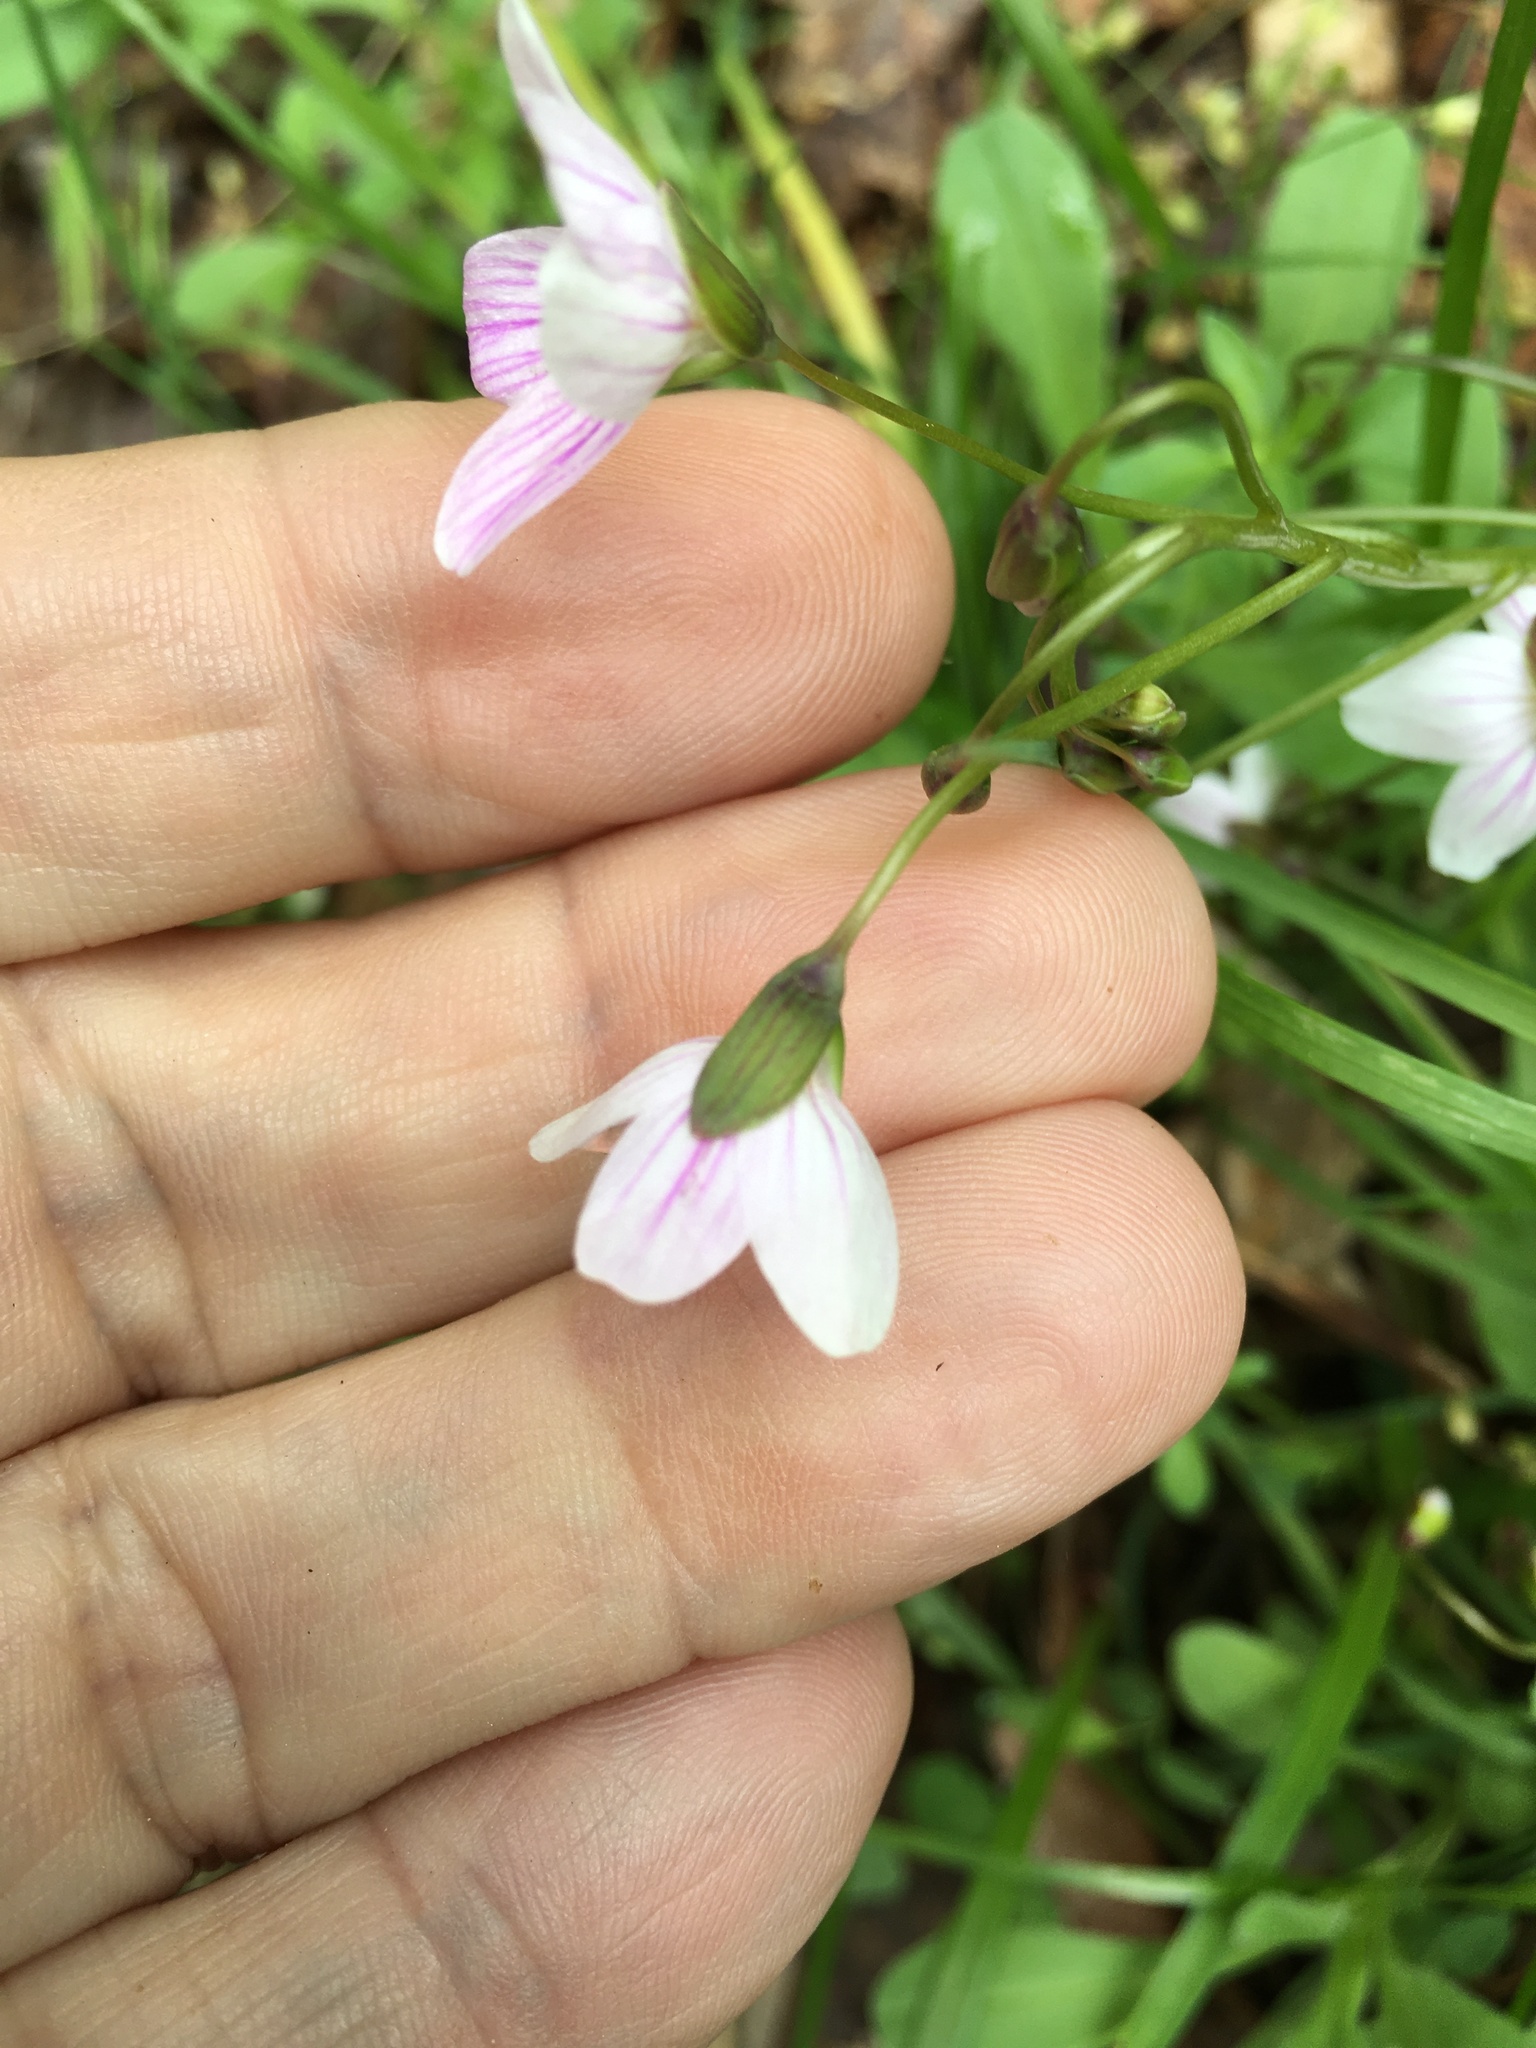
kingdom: Plantae
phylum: Tracheophyta
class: Magnoliopsida
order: Caryophyllales
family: Montiaceae
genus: Claytonia
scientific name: Claytonia virginica
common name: Virginia springbeauty
